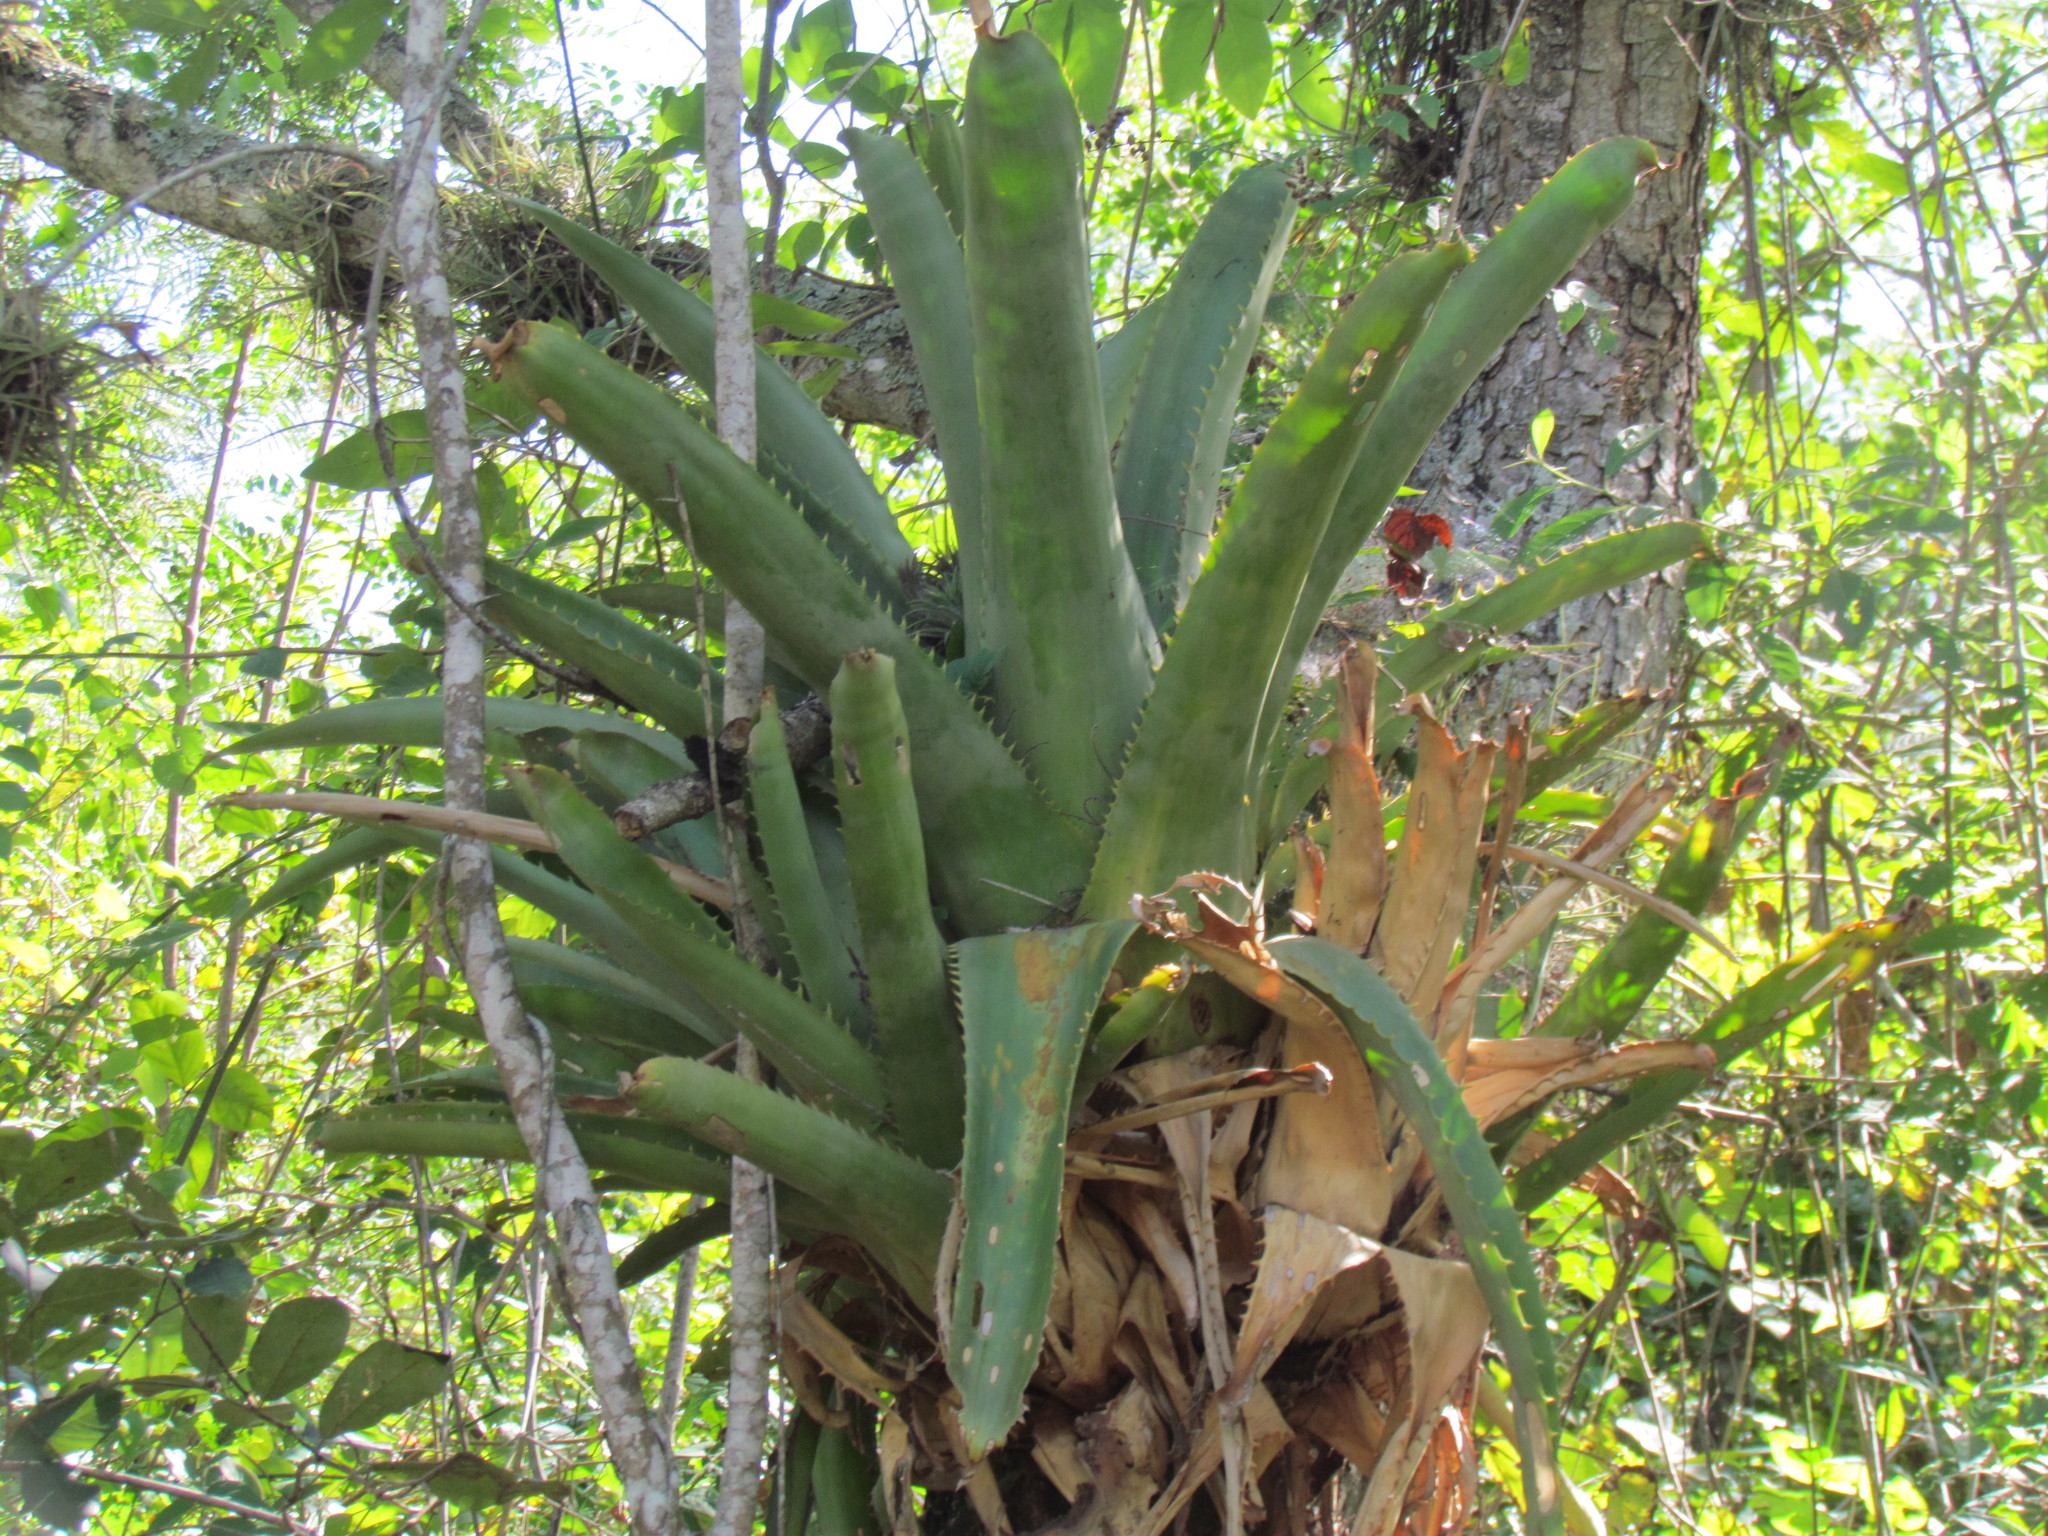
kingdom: Plantae
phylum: Tracheophyta
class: Liliopsida
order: Poales
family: Bromeliaceae
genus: Aechmea
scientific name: Aechmea bracteata
